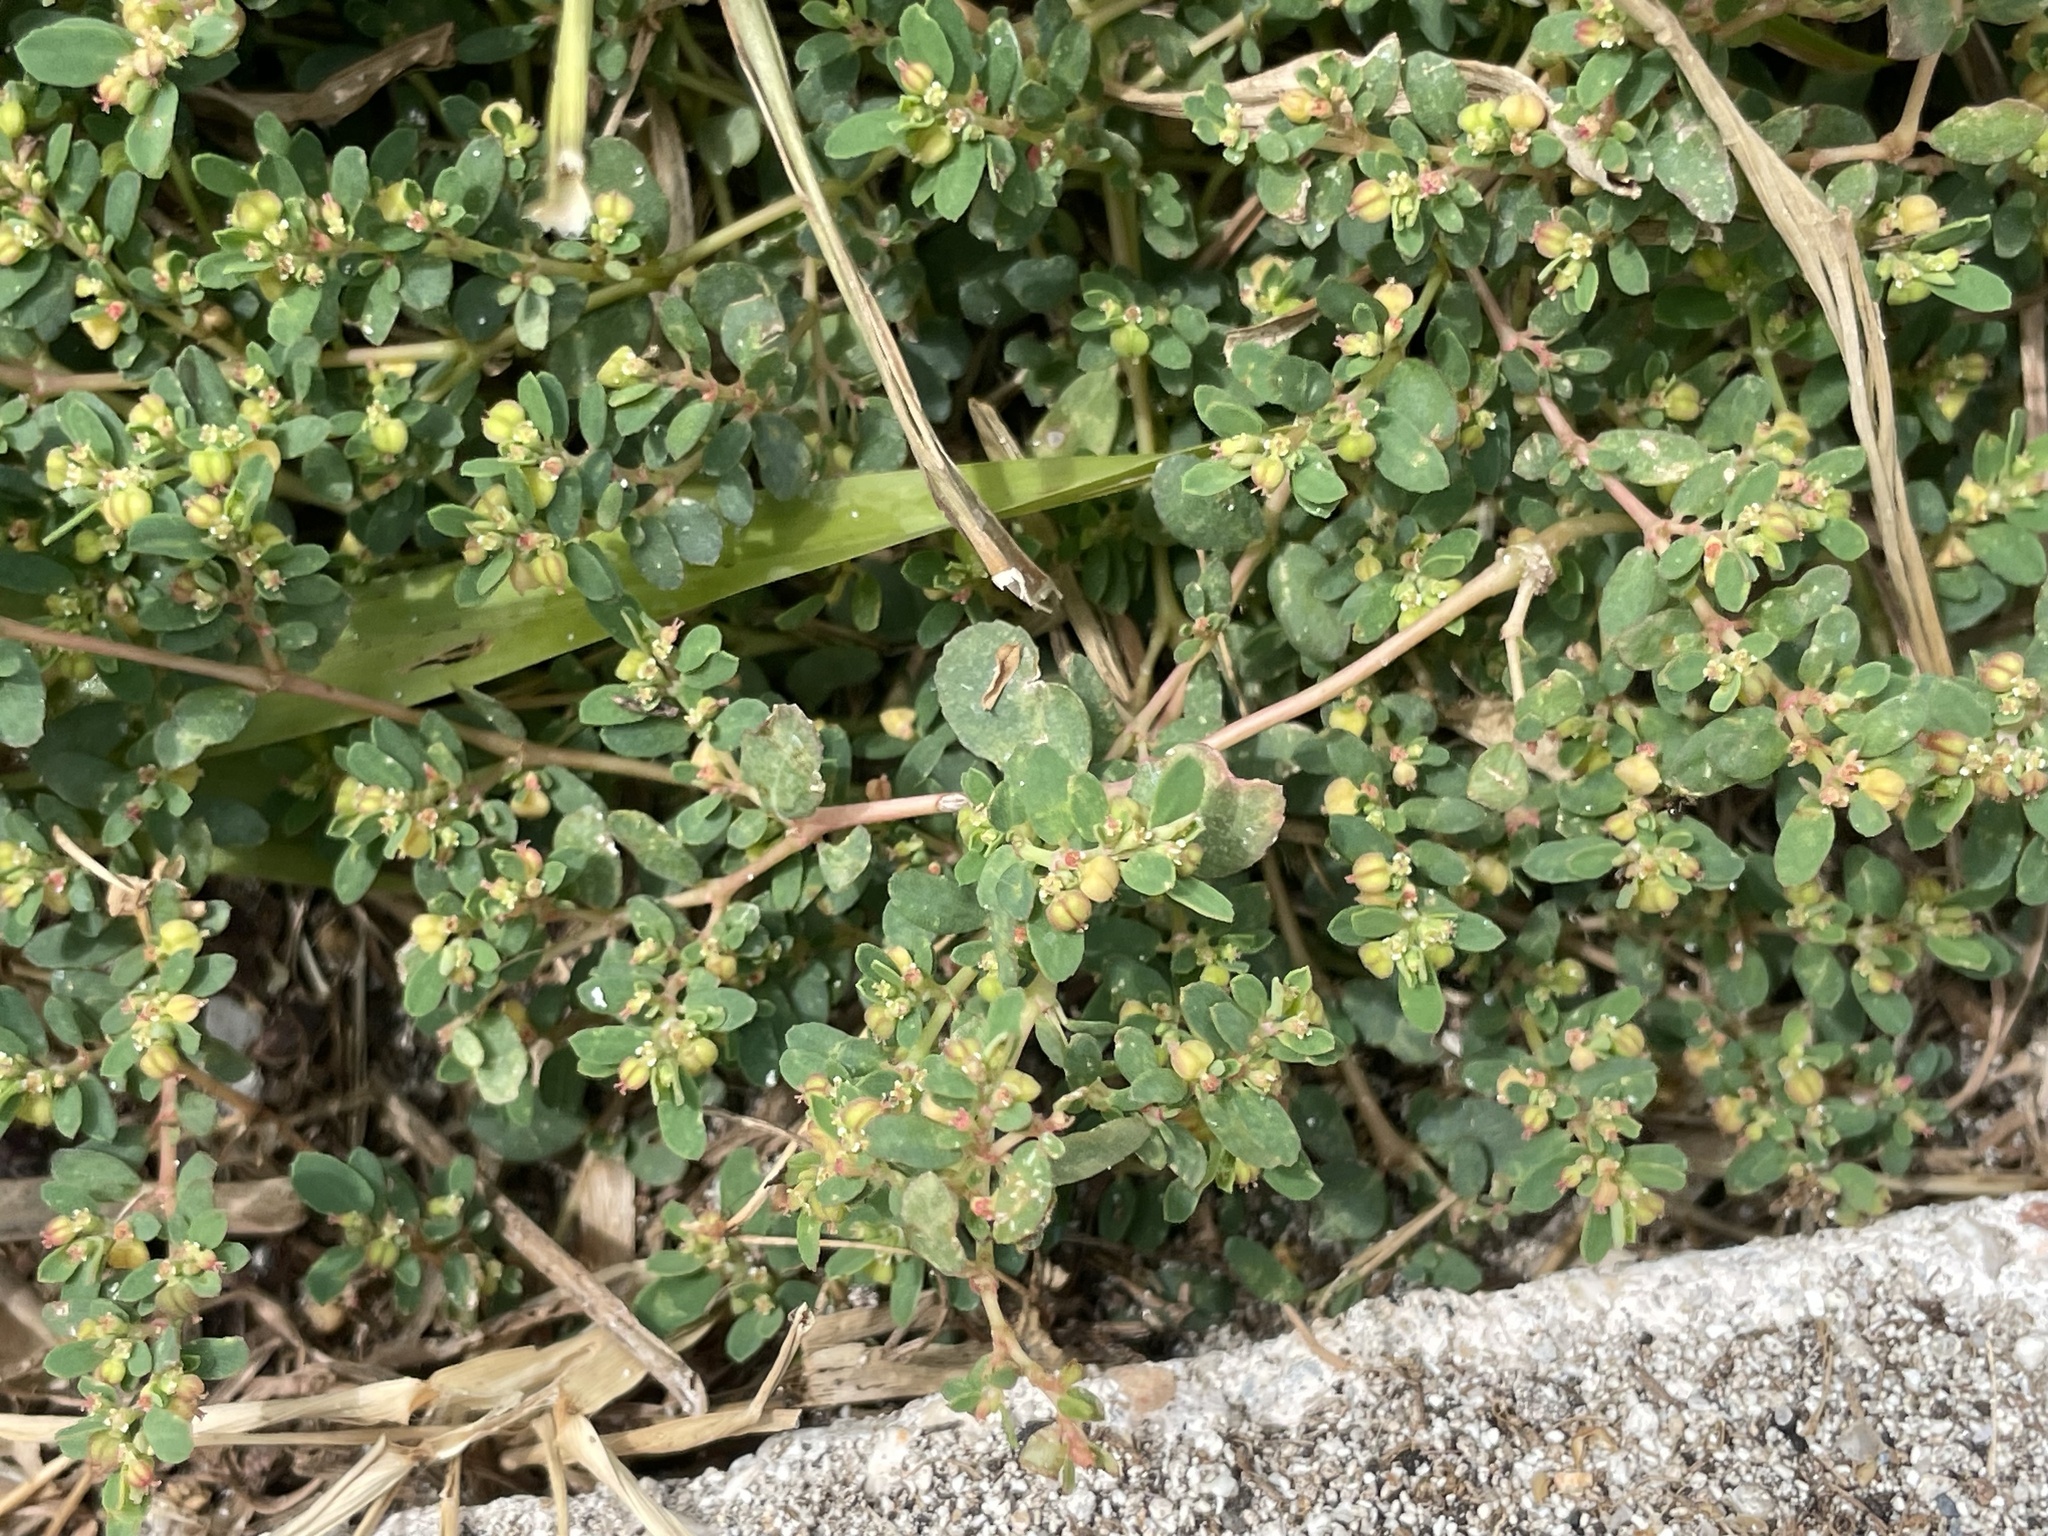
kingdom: Plantae
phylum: Tracheophyta
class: Magnoliopsida
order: Malpighiales
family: Euphorbiaceae
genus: Euphorbia
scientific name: Euphorbia blodgettii
